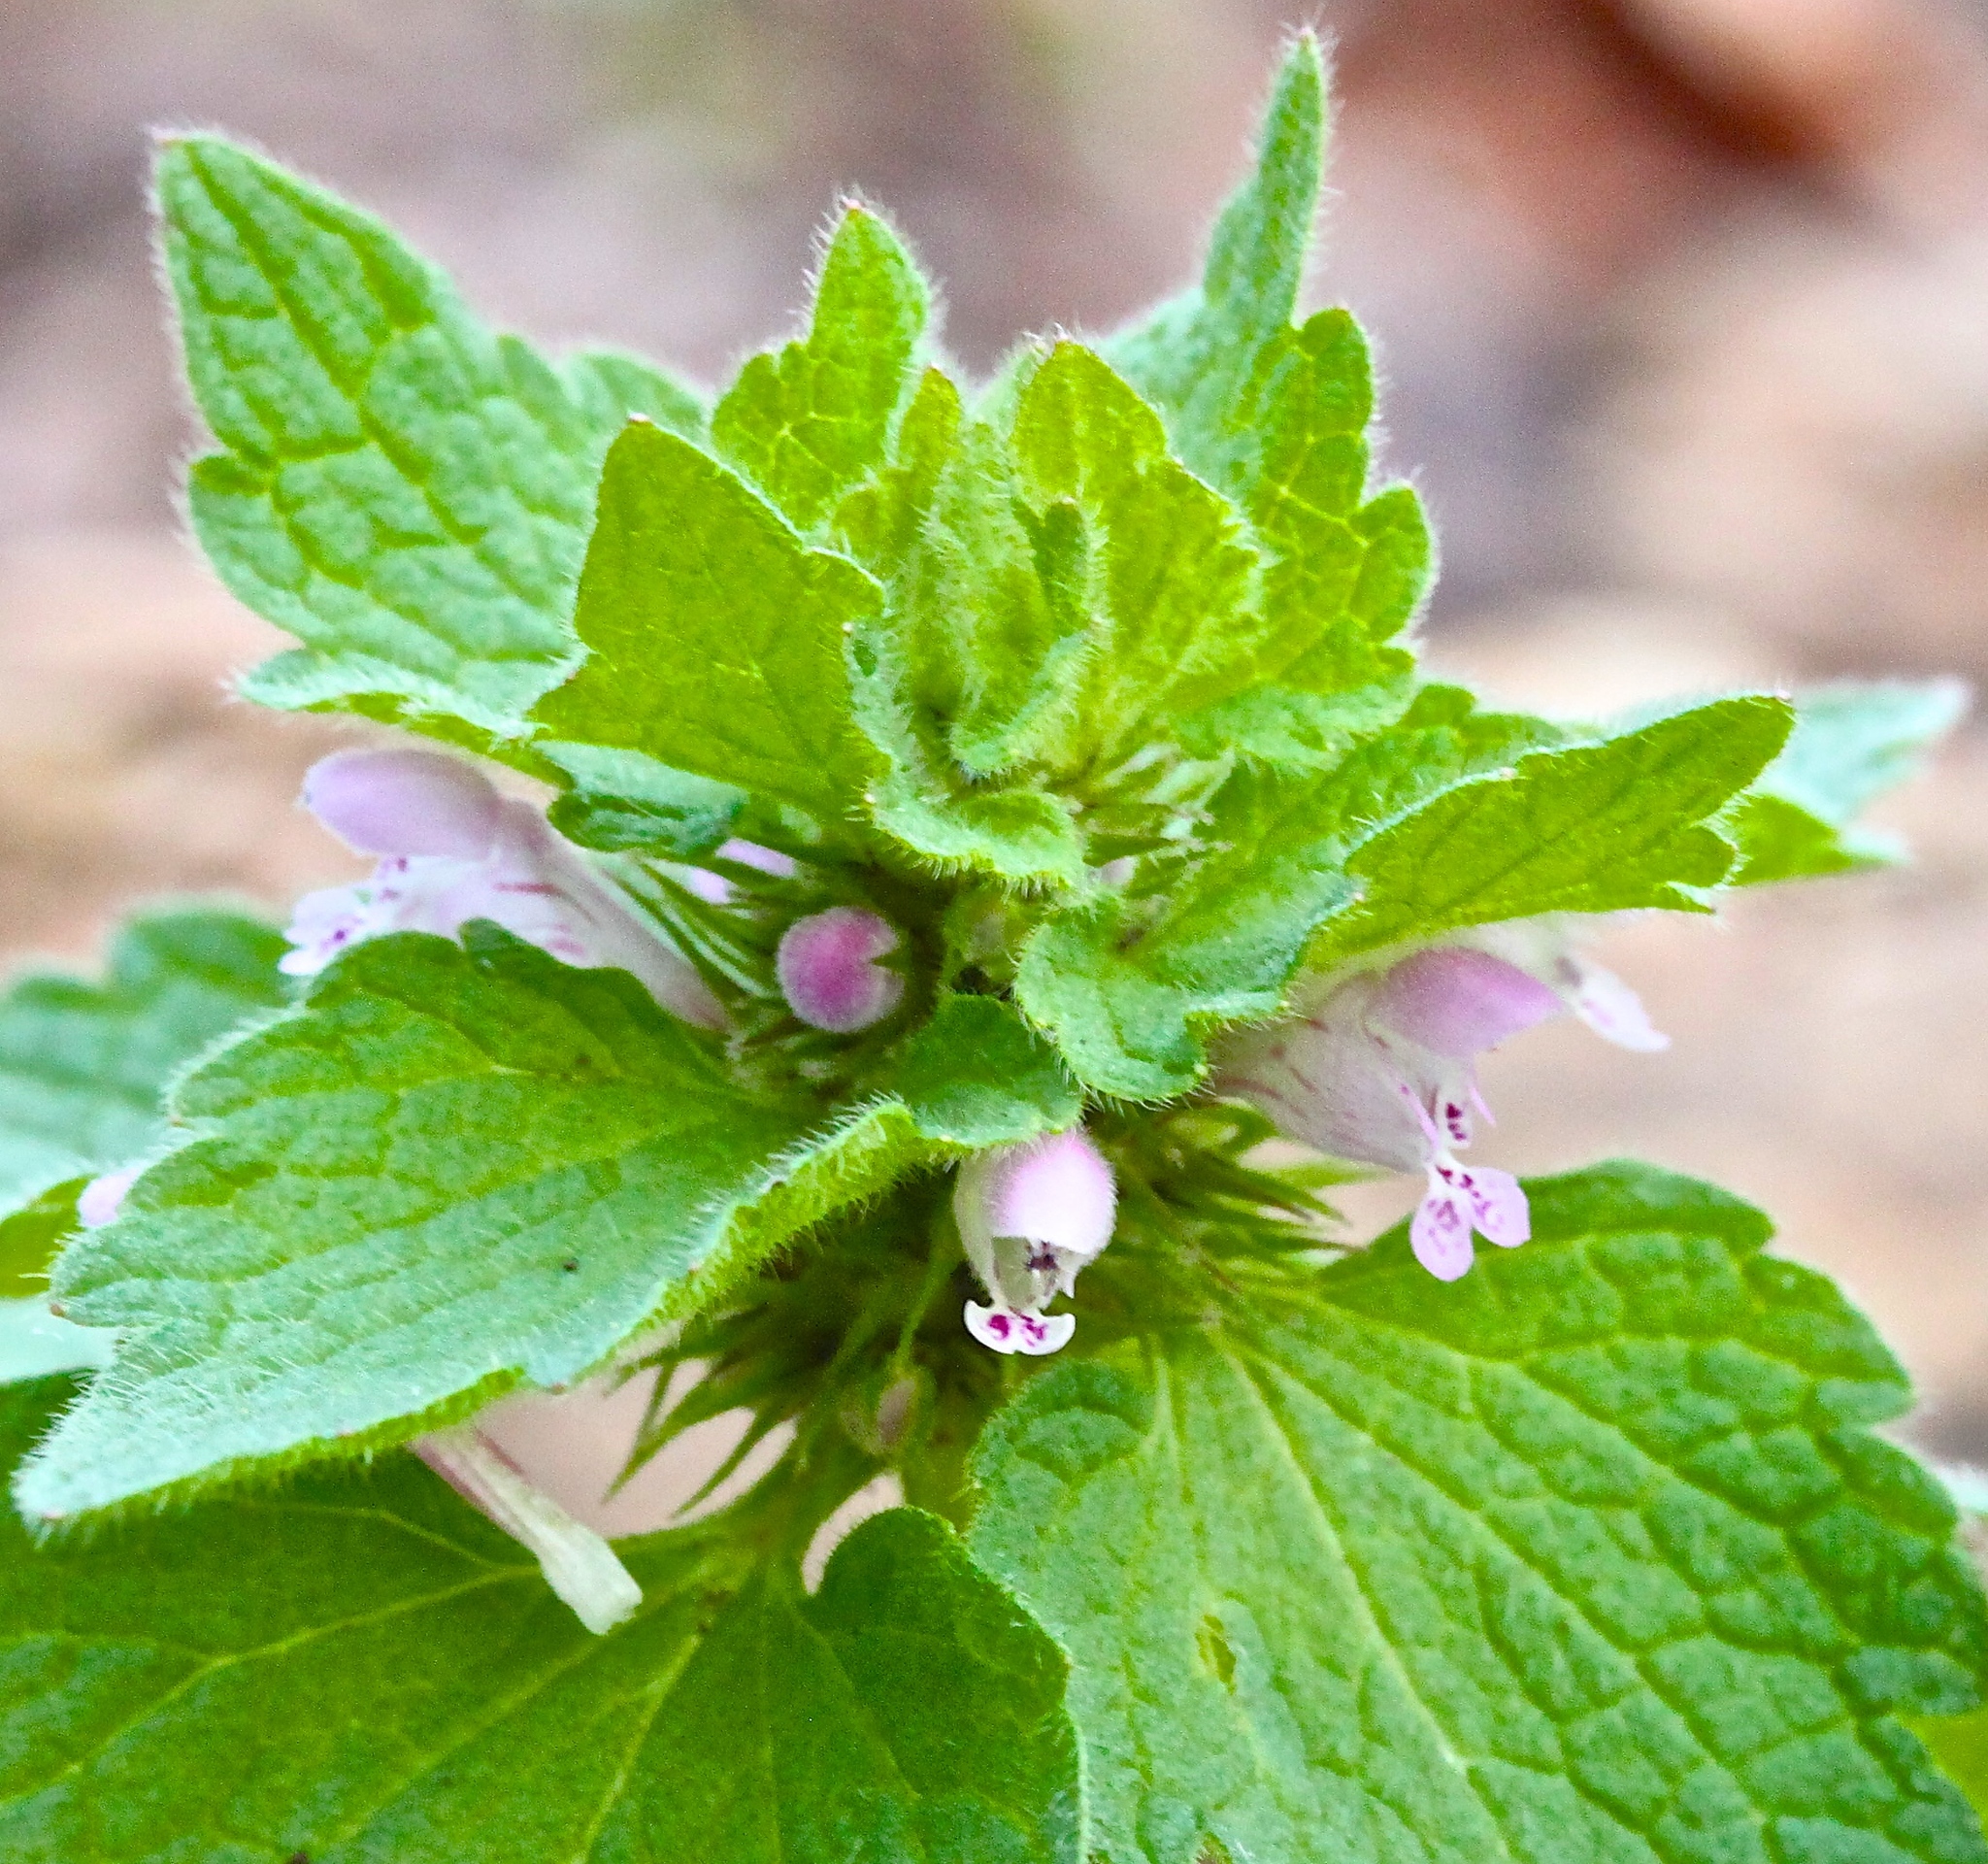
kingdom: Plantae
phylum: Tracheophyta
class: Magnoliopsida
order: Lamiales
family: Lamiaceae
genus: Lamium
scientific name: Lamium purpureum
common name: Red dead-nettle
